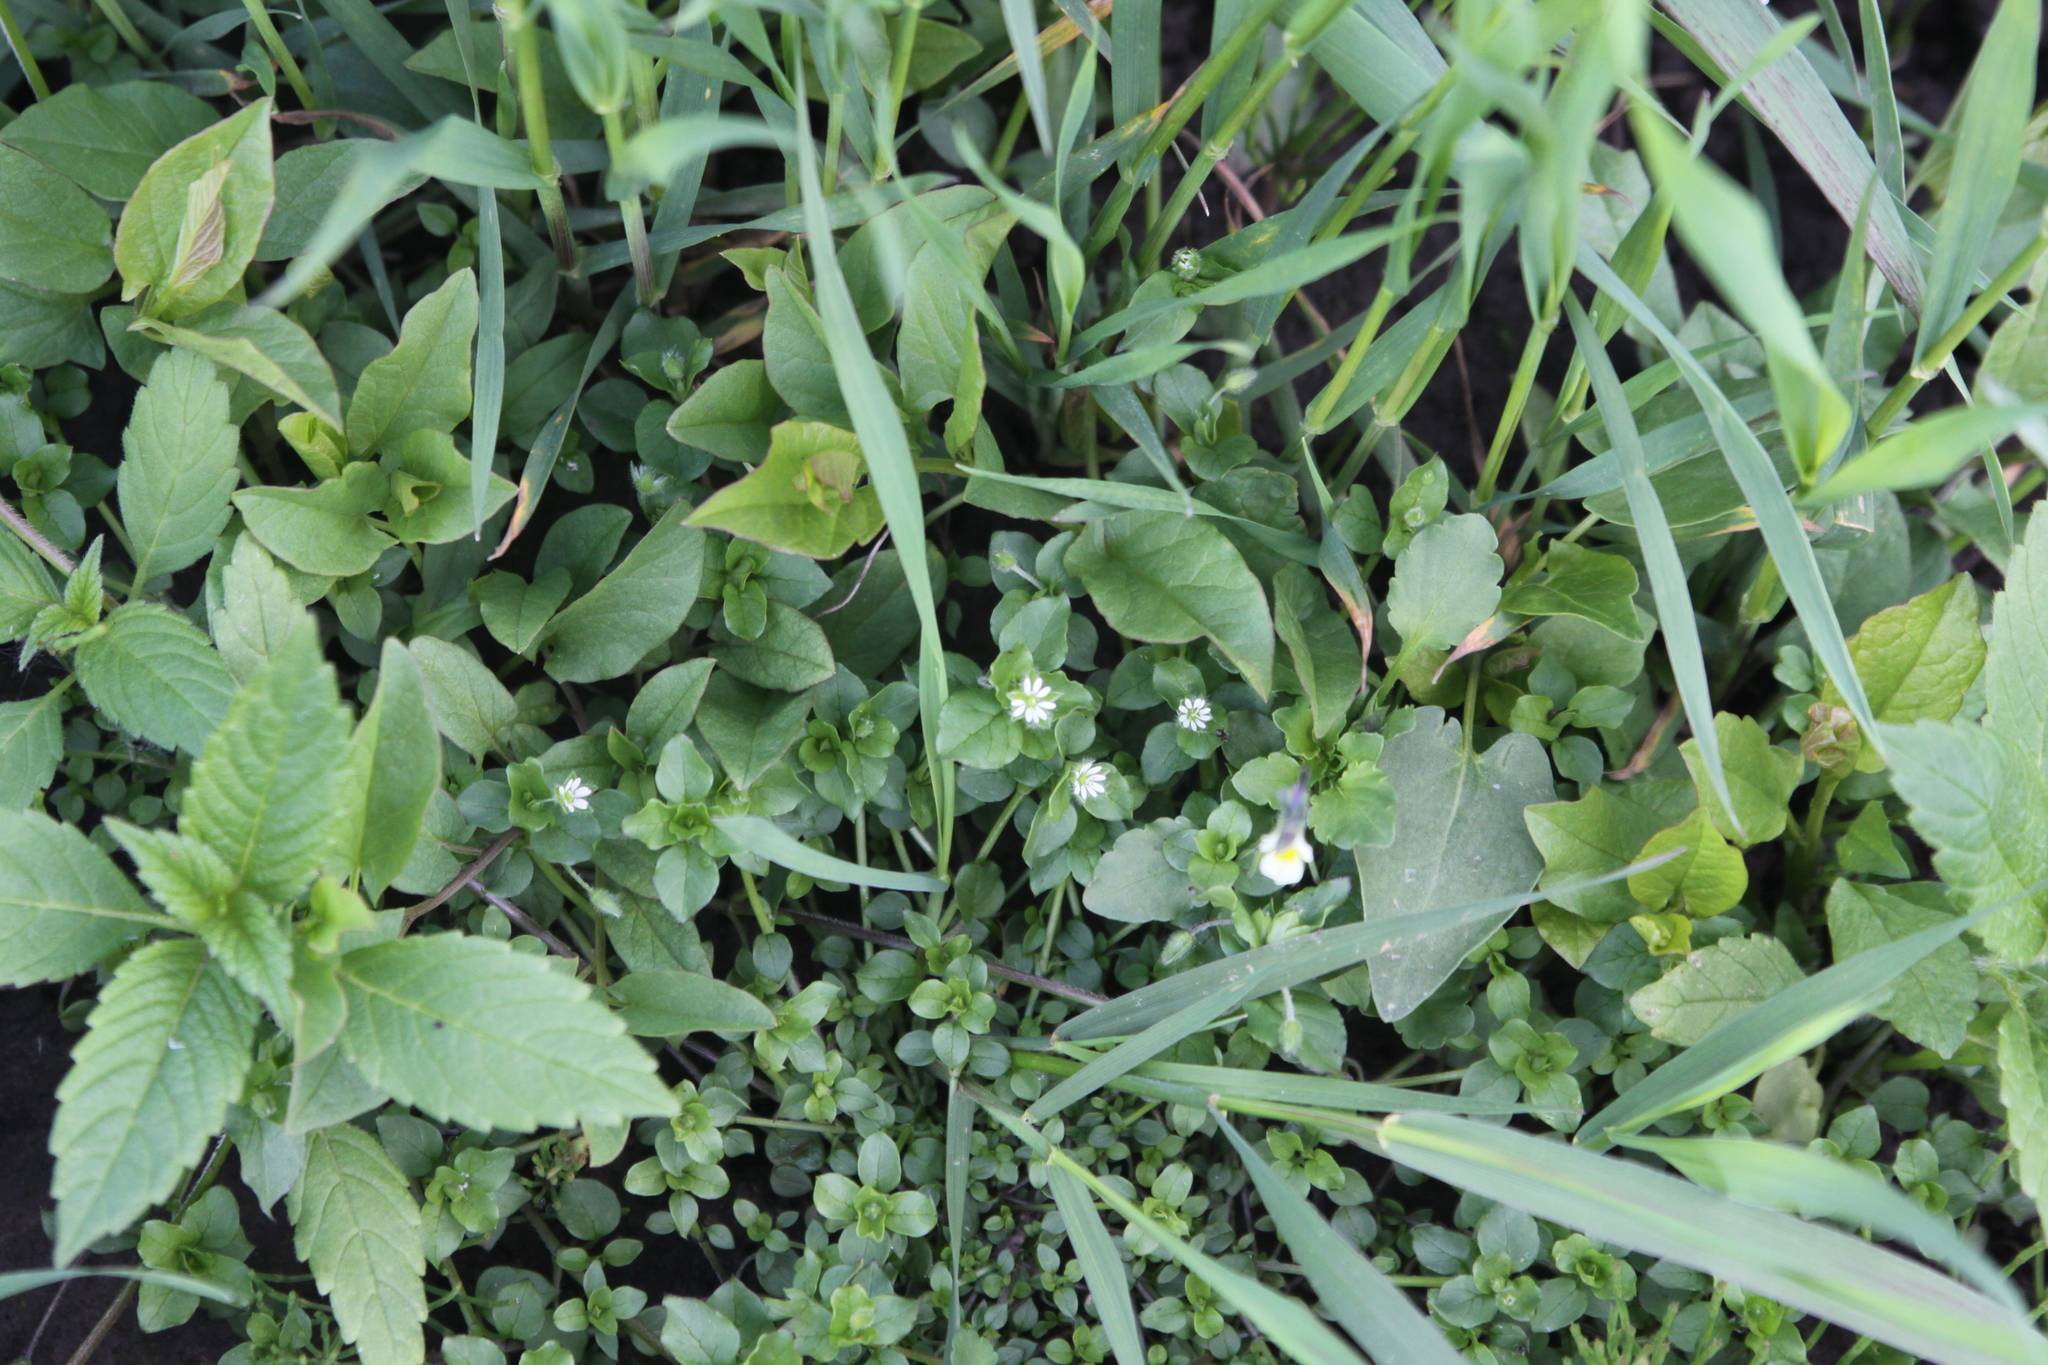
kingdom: Plantae
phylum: Tracheophyta
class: Magnoliopsida
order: Caryophyllales
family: Caryophyllaceae
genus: Stellaria
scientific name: Stellaria media
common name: Common chickweed
